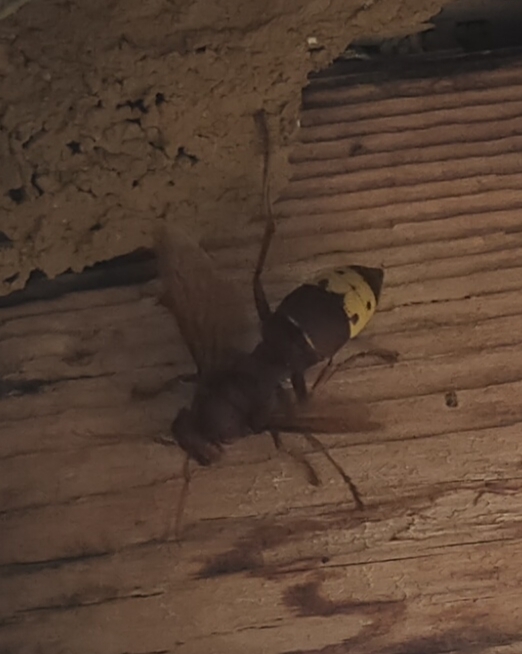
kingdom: Animalia
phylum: Arthropoda
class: Insecta
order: Hymenoptera
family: Vespidae
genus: Vespa
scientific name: Vespa orientalis
